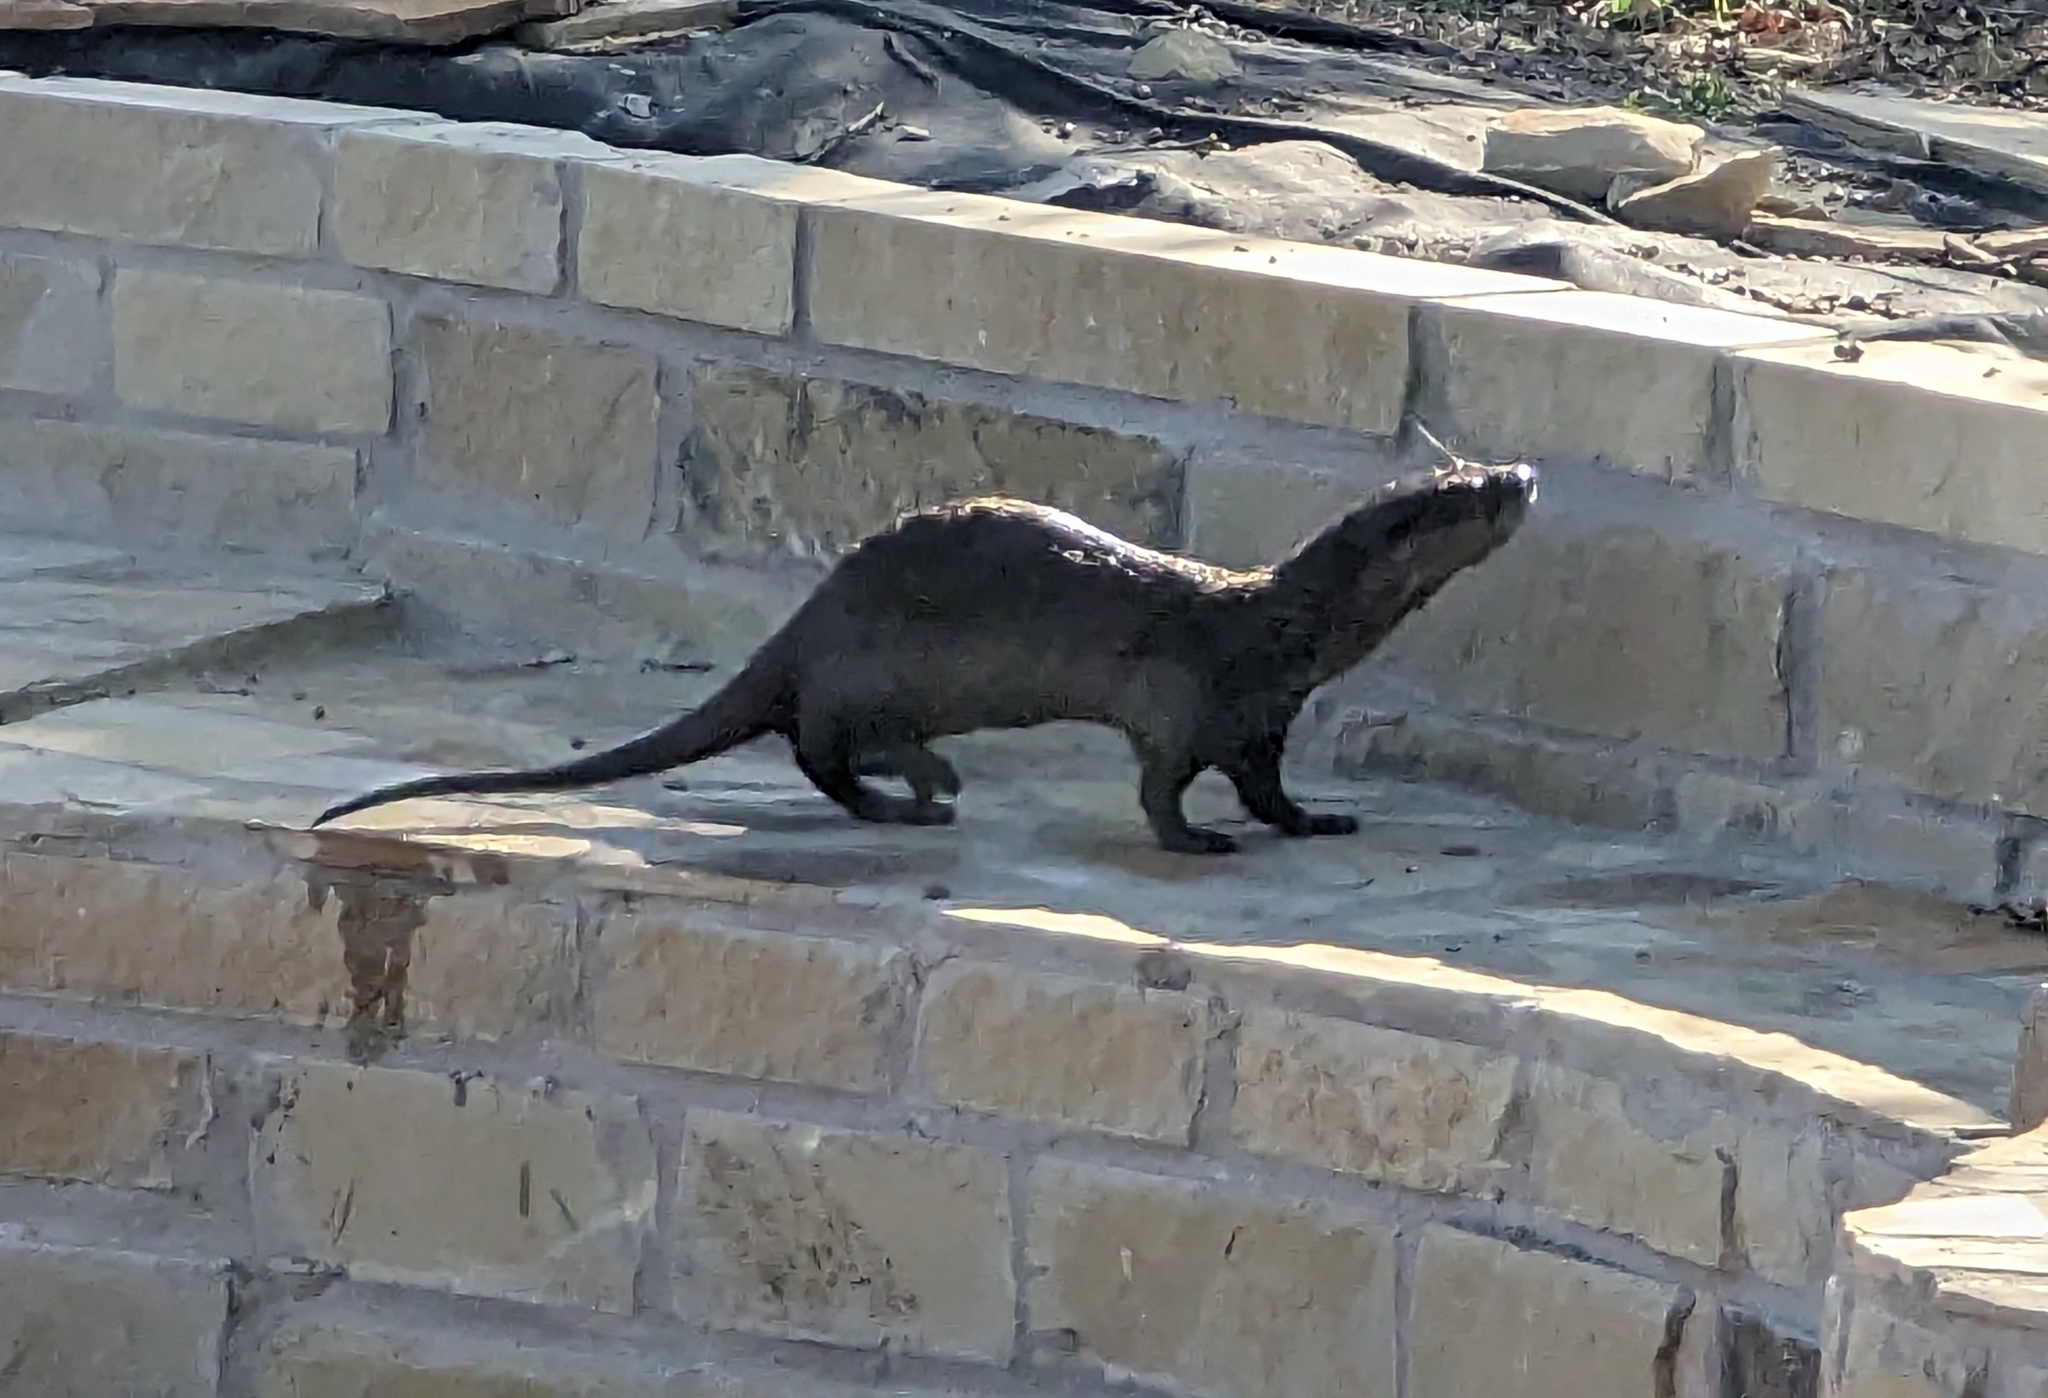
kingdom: Animalia
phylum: Chordata
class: Mammalia
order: Carnivora
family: Mustelidae
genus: Lontra
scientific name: Lontra canadensis
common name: North american river otter
